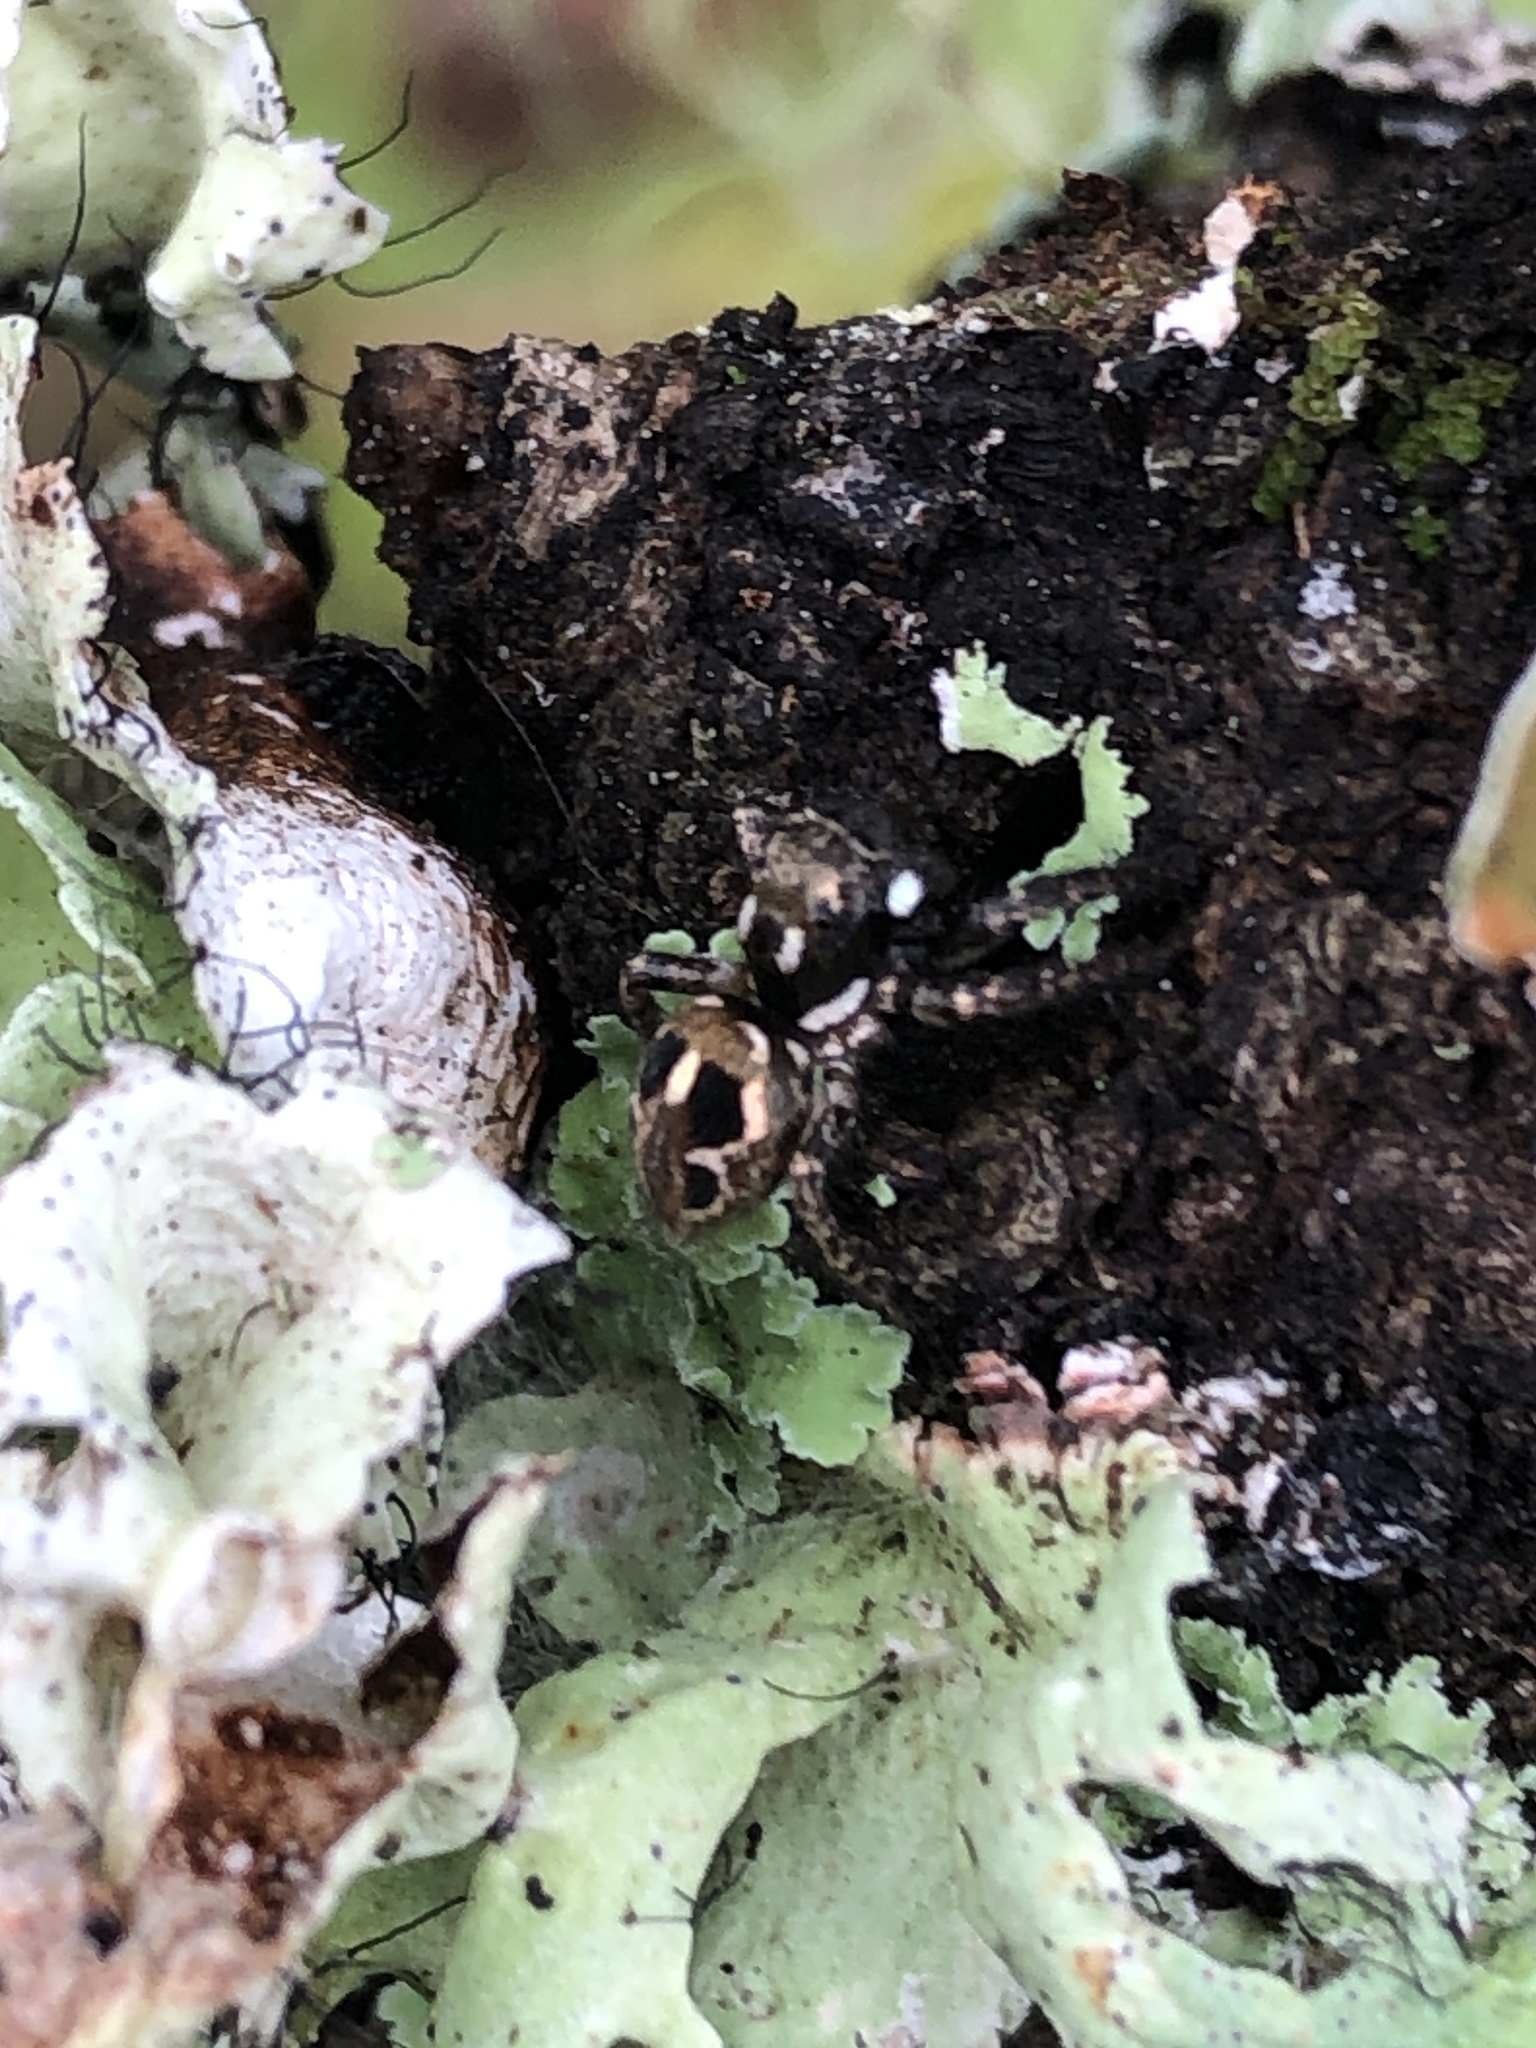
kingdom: Animalia
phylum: Arthropoda
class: Arachnida
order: Araneae
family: Salticidae
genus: Anasaitis
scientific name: Anasaitis canosa
